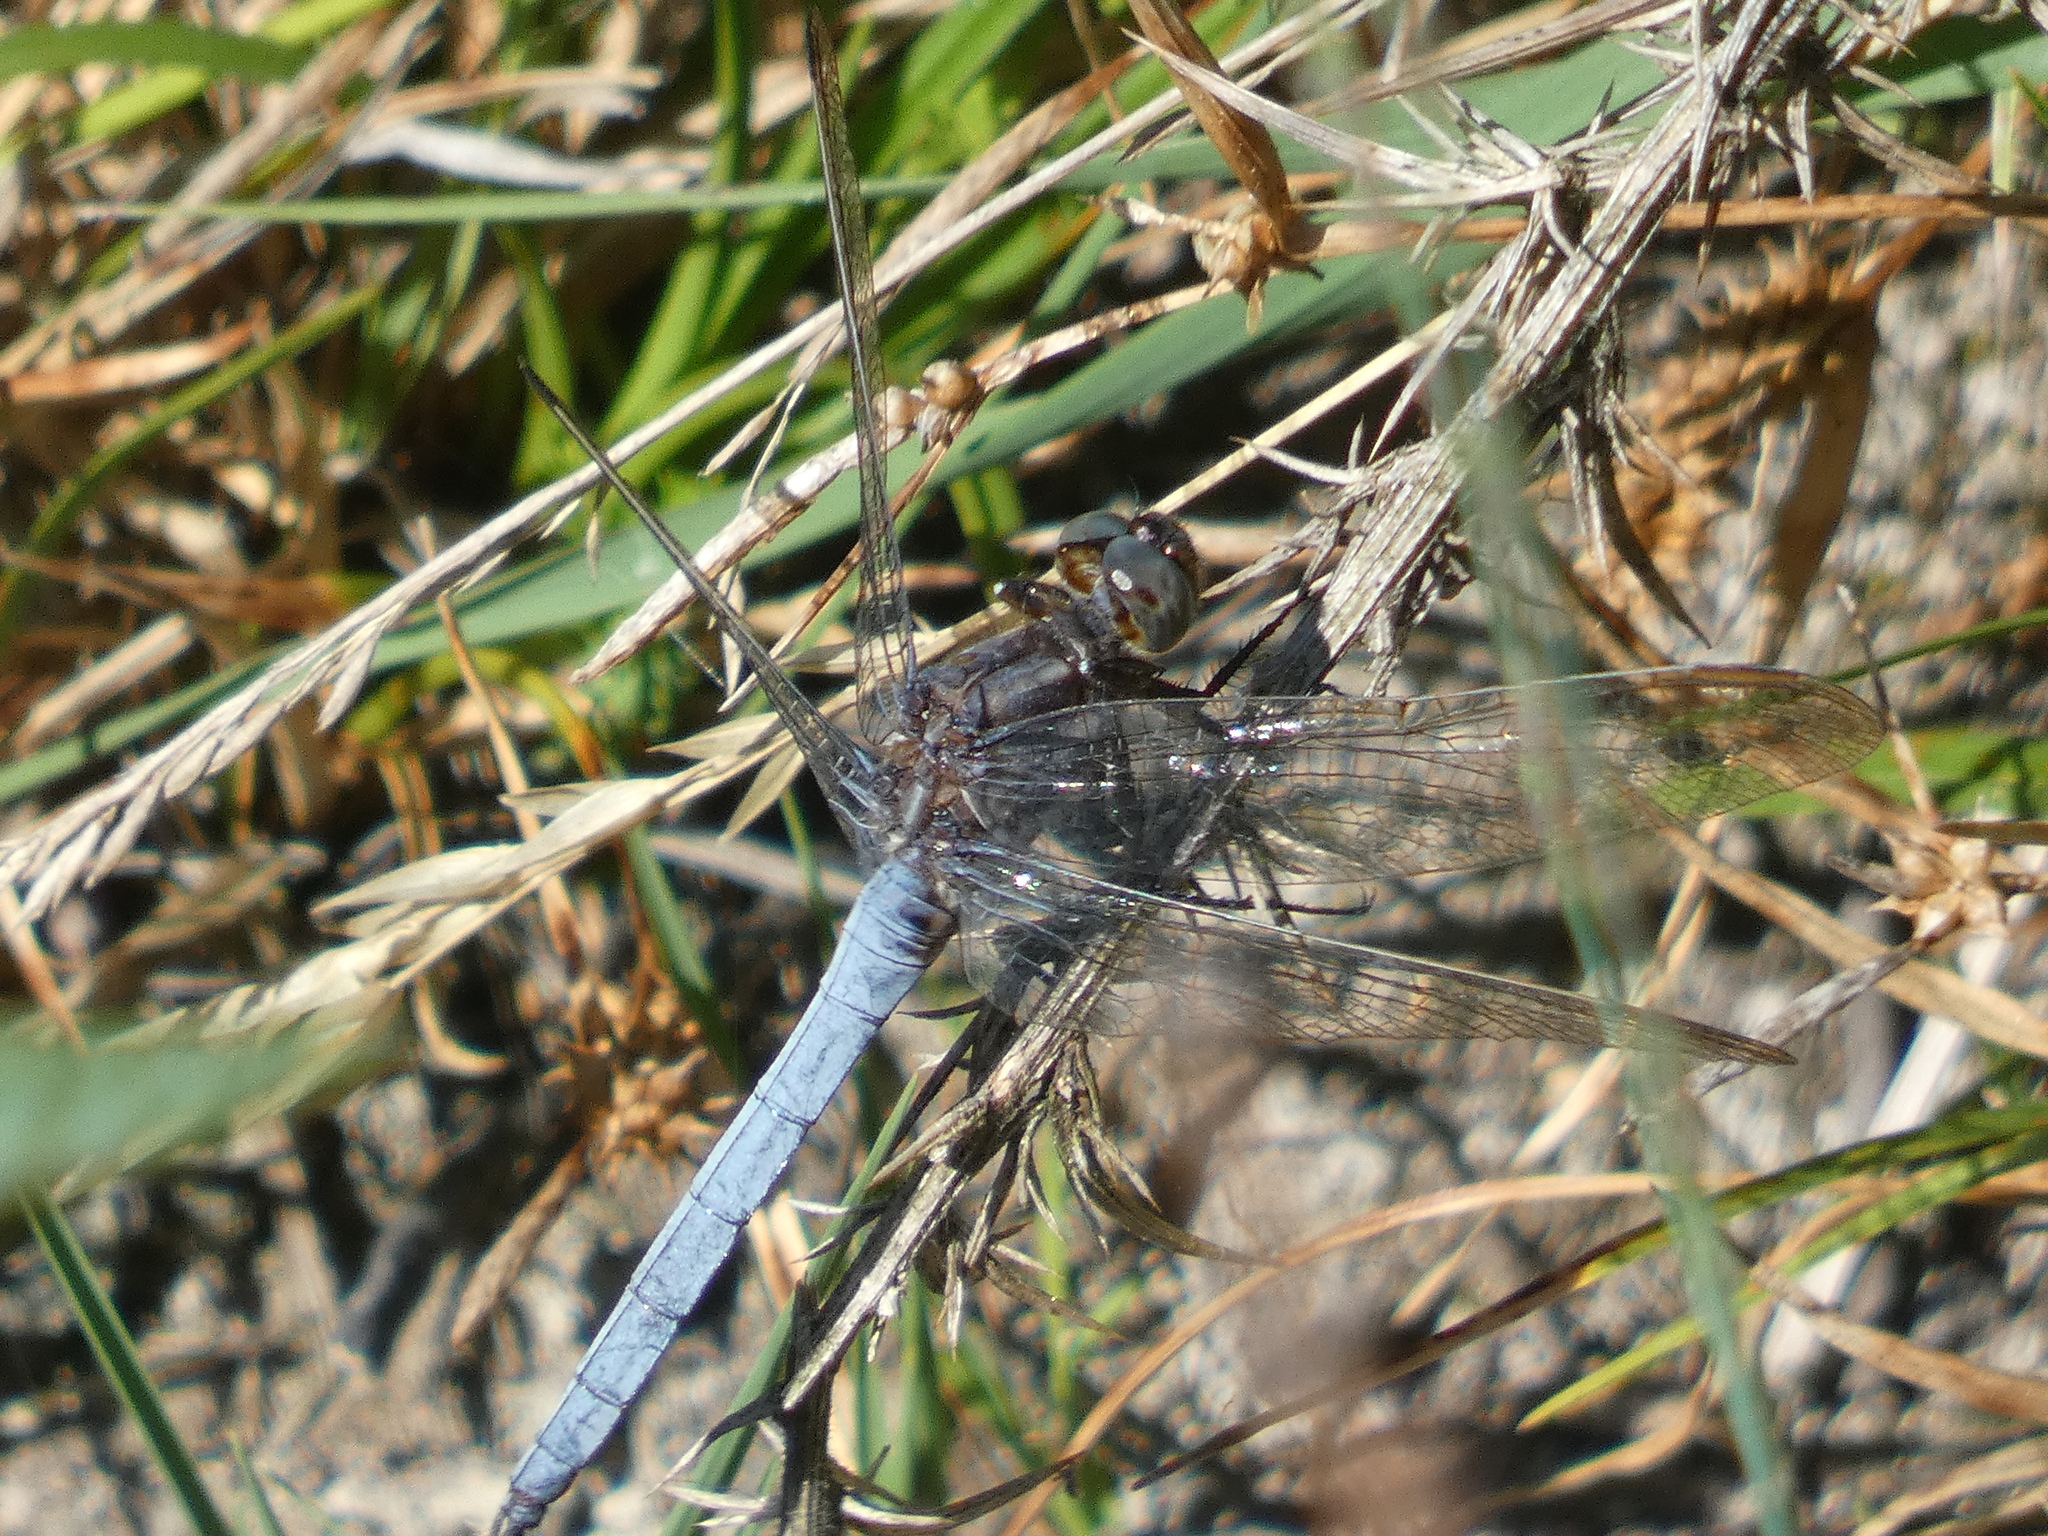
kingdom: Animalia
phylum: Arthropoda
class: Insecta
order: Odonata
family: Libellulidae
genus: Orthetrum
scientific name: Orthetrum coerulescens
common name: Keeled skimmer
